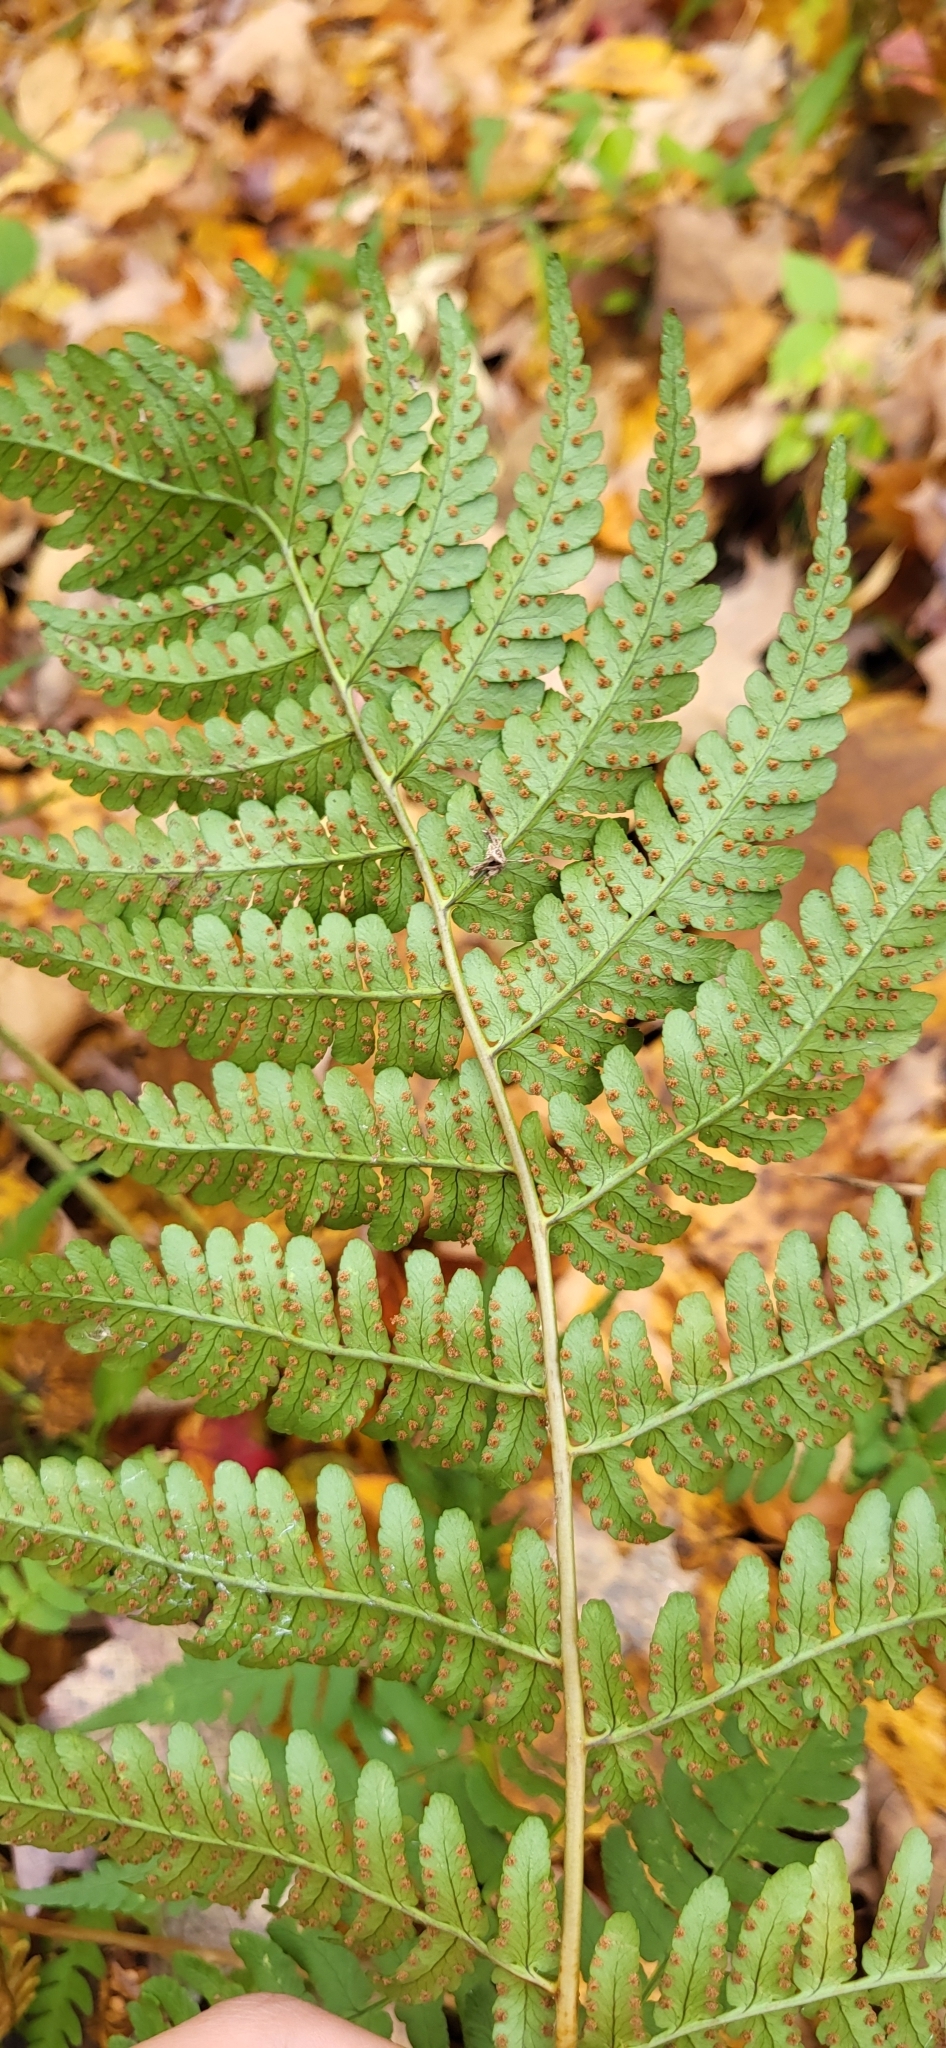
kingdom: Plantae
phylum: Tracheophyta
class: Polypodiopsida
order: Polypodiales
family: Dryopteridaceae
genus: Dryopteris
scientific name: Dryopteris marginalis
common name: Marginal wood fern
